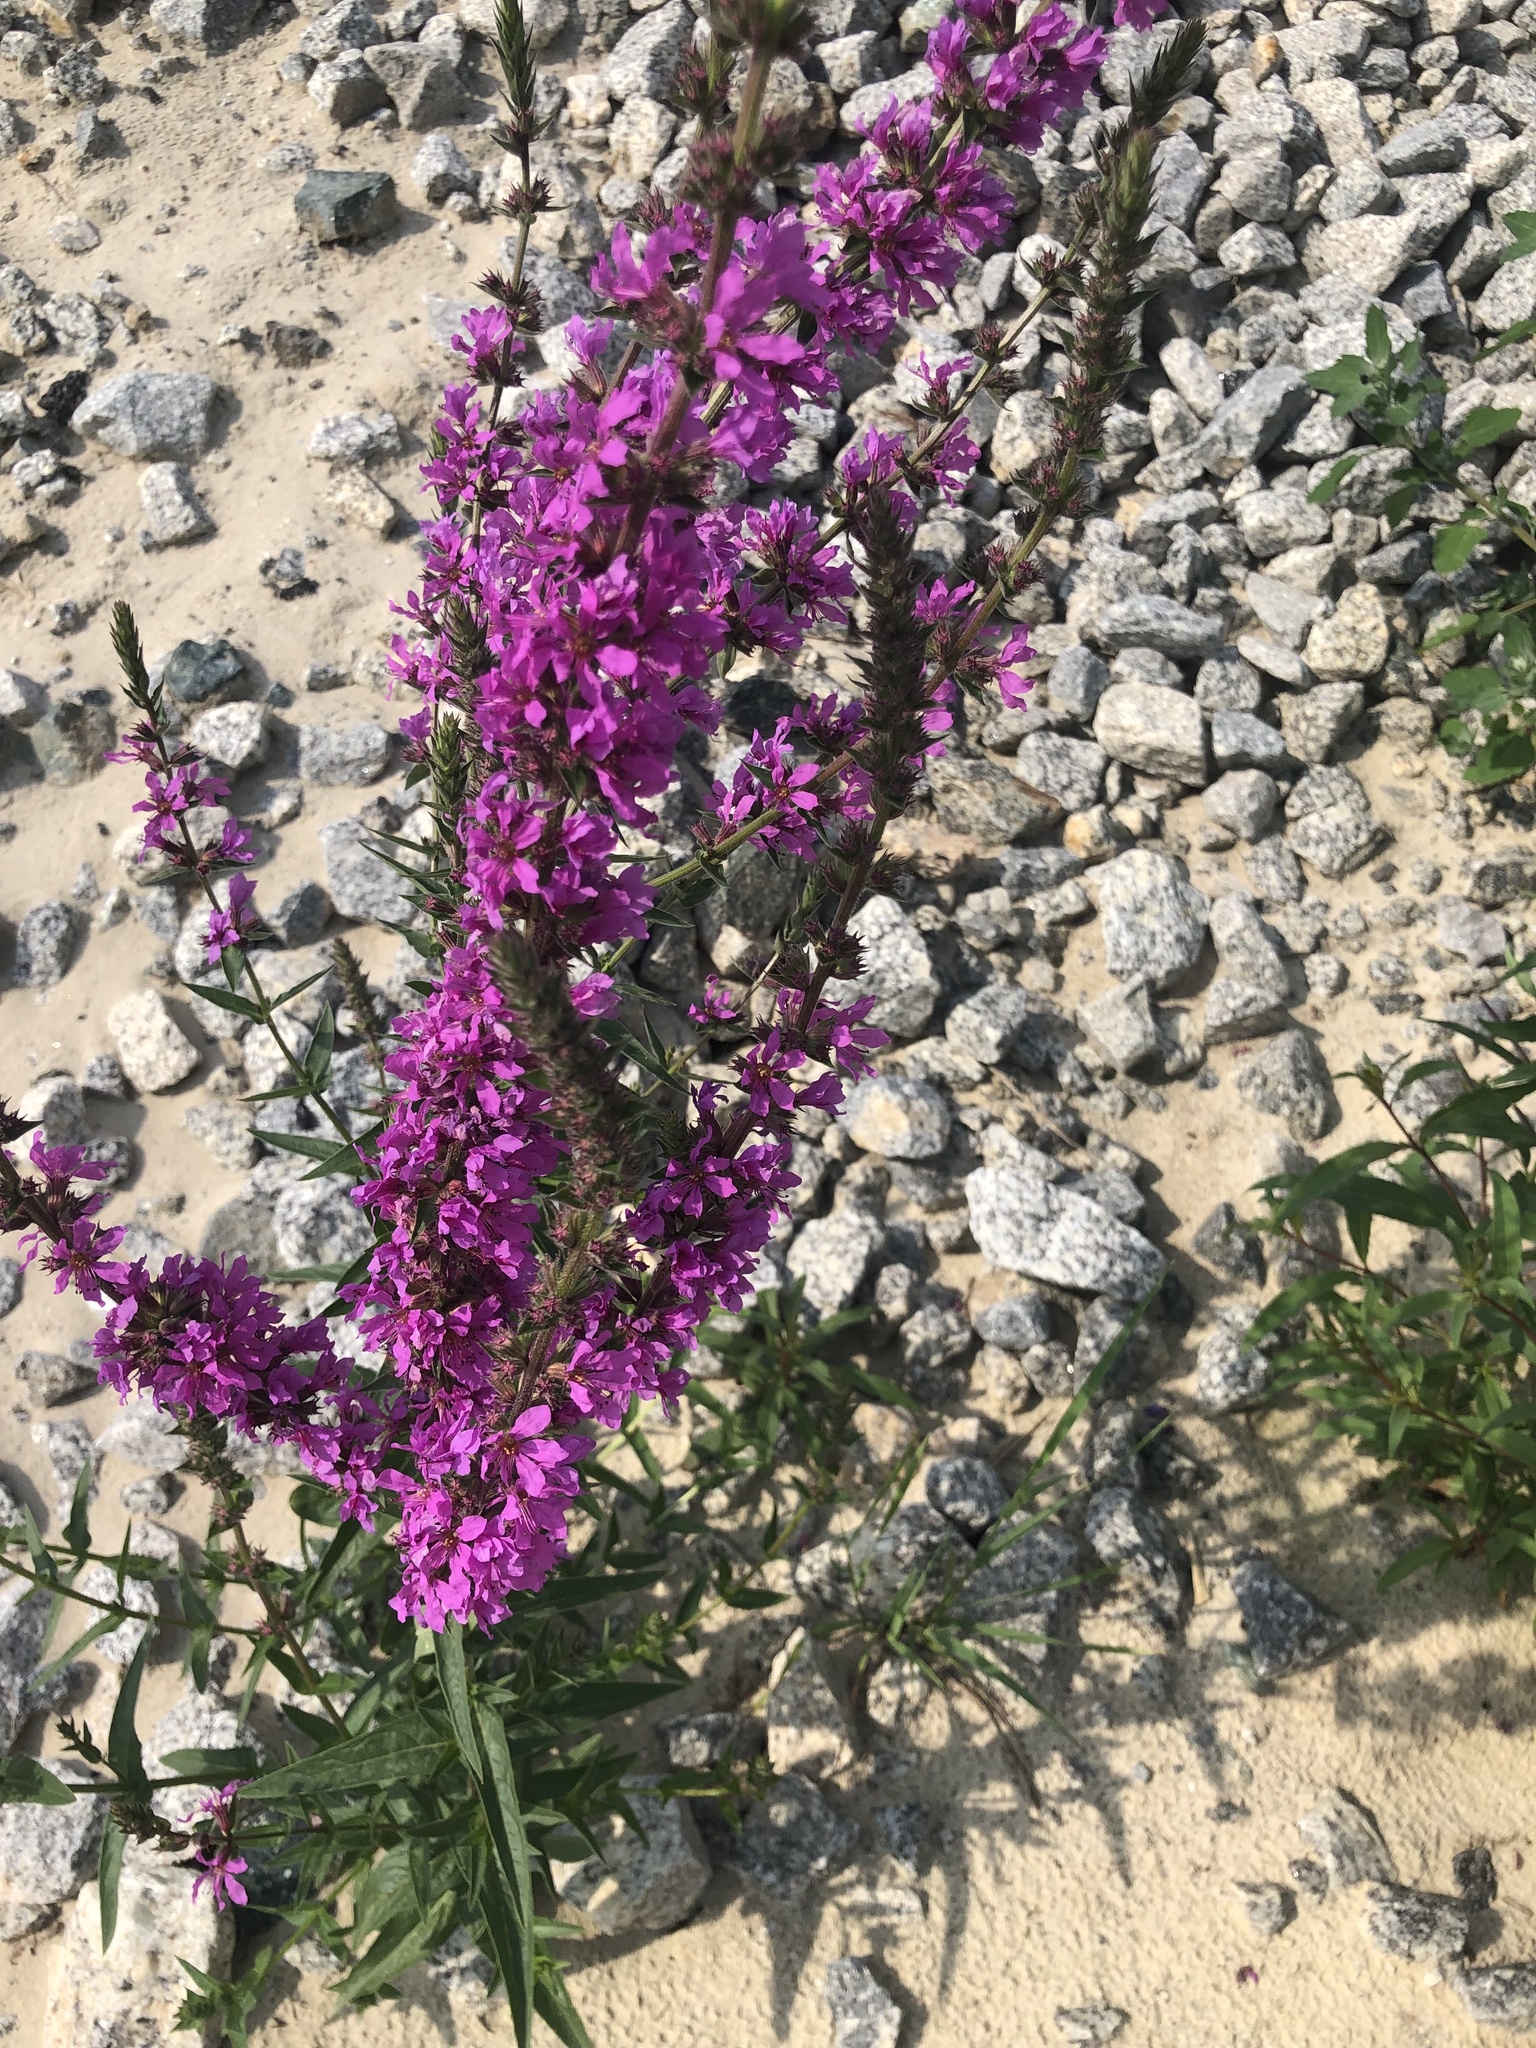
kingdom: Plantae
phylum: Tracheophyta
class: Magnoliopsida
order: Myrtales
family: Lythraceae
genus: Lythrum
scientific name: Lythrum salicaria
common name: Purple loosestrife
